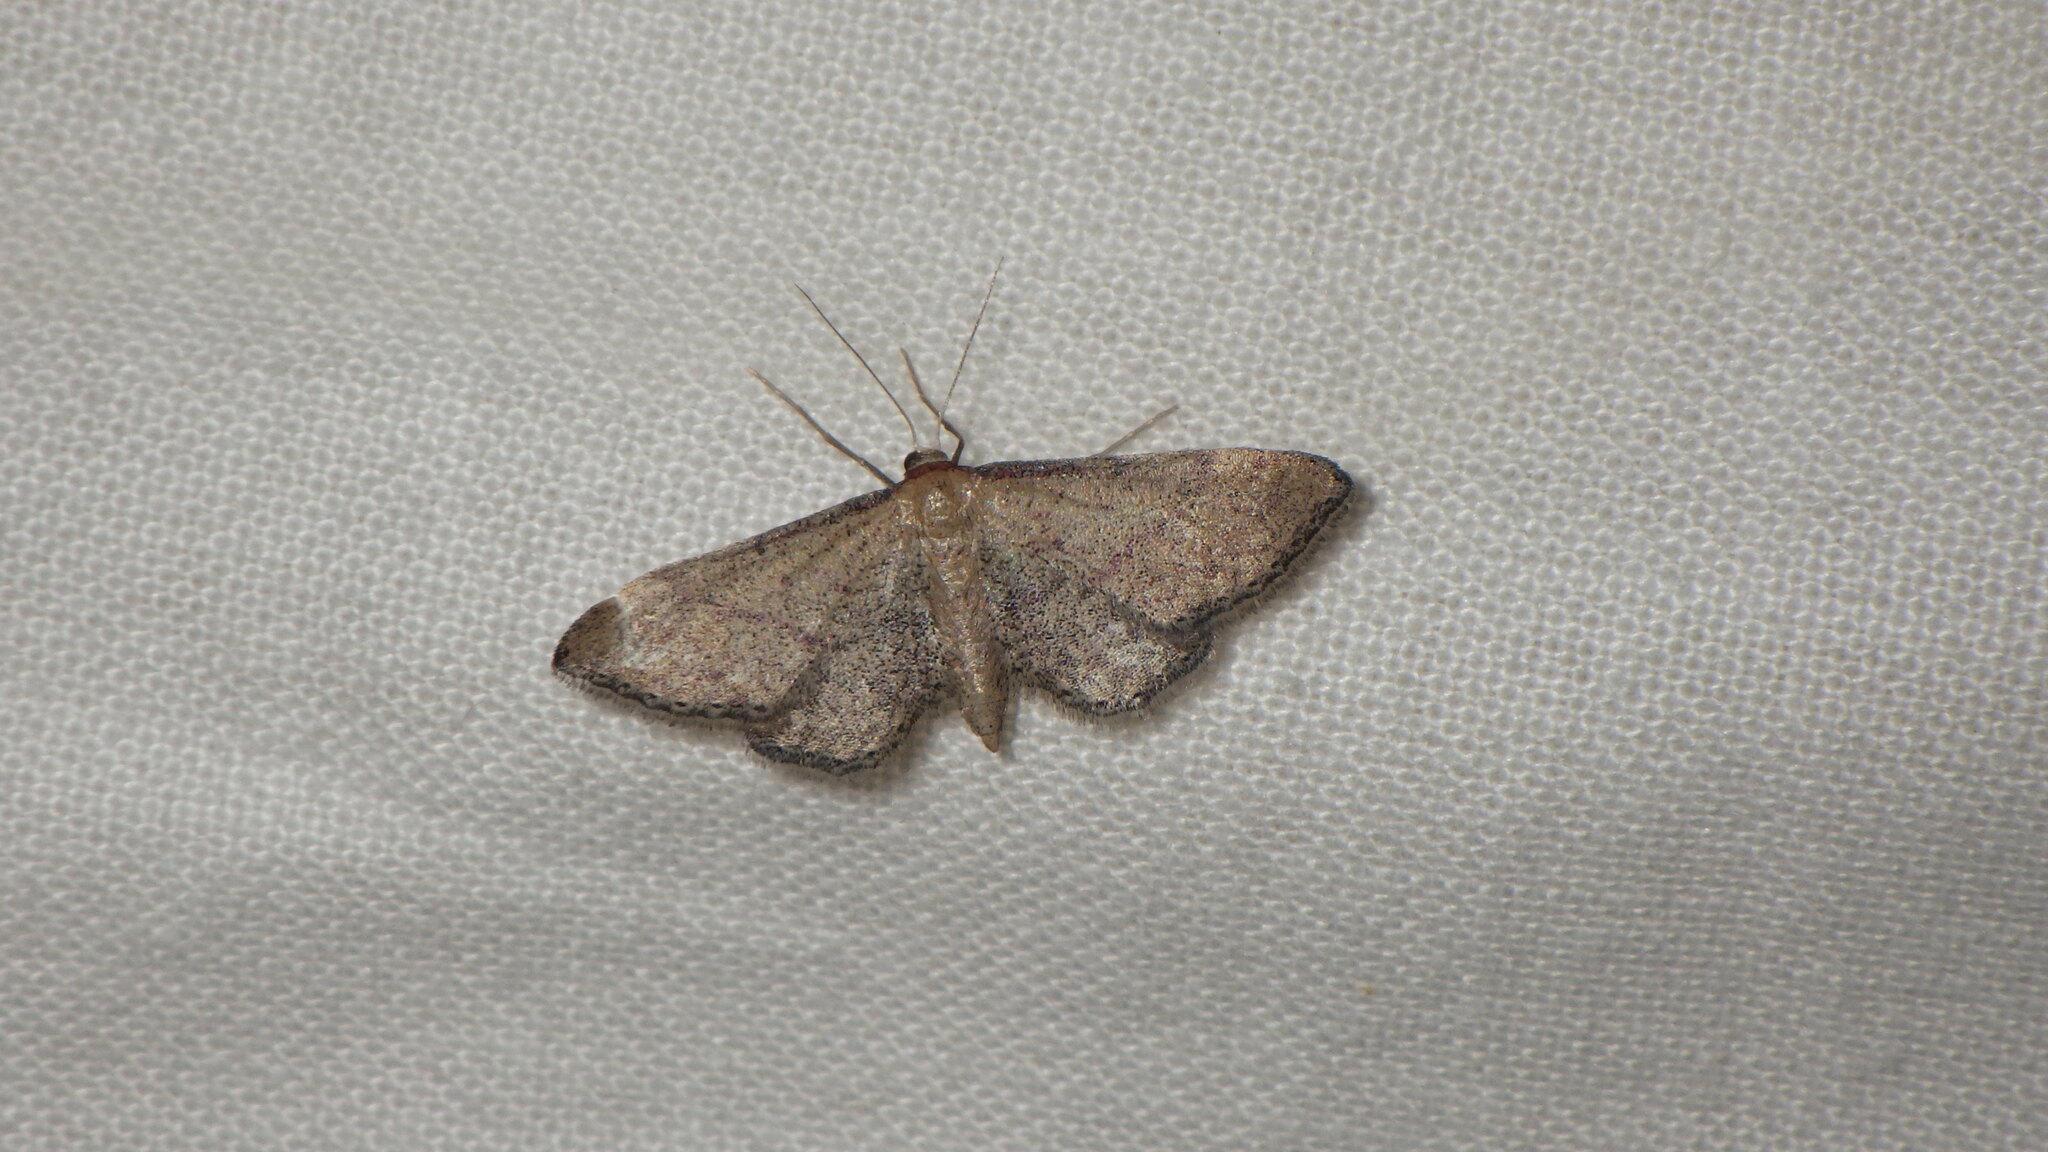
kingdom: Animalia
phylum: Arthropoda
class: Insecta
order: Lepidoptera
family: Geometridae
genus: Idaea
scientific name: Idaea infirmaria
